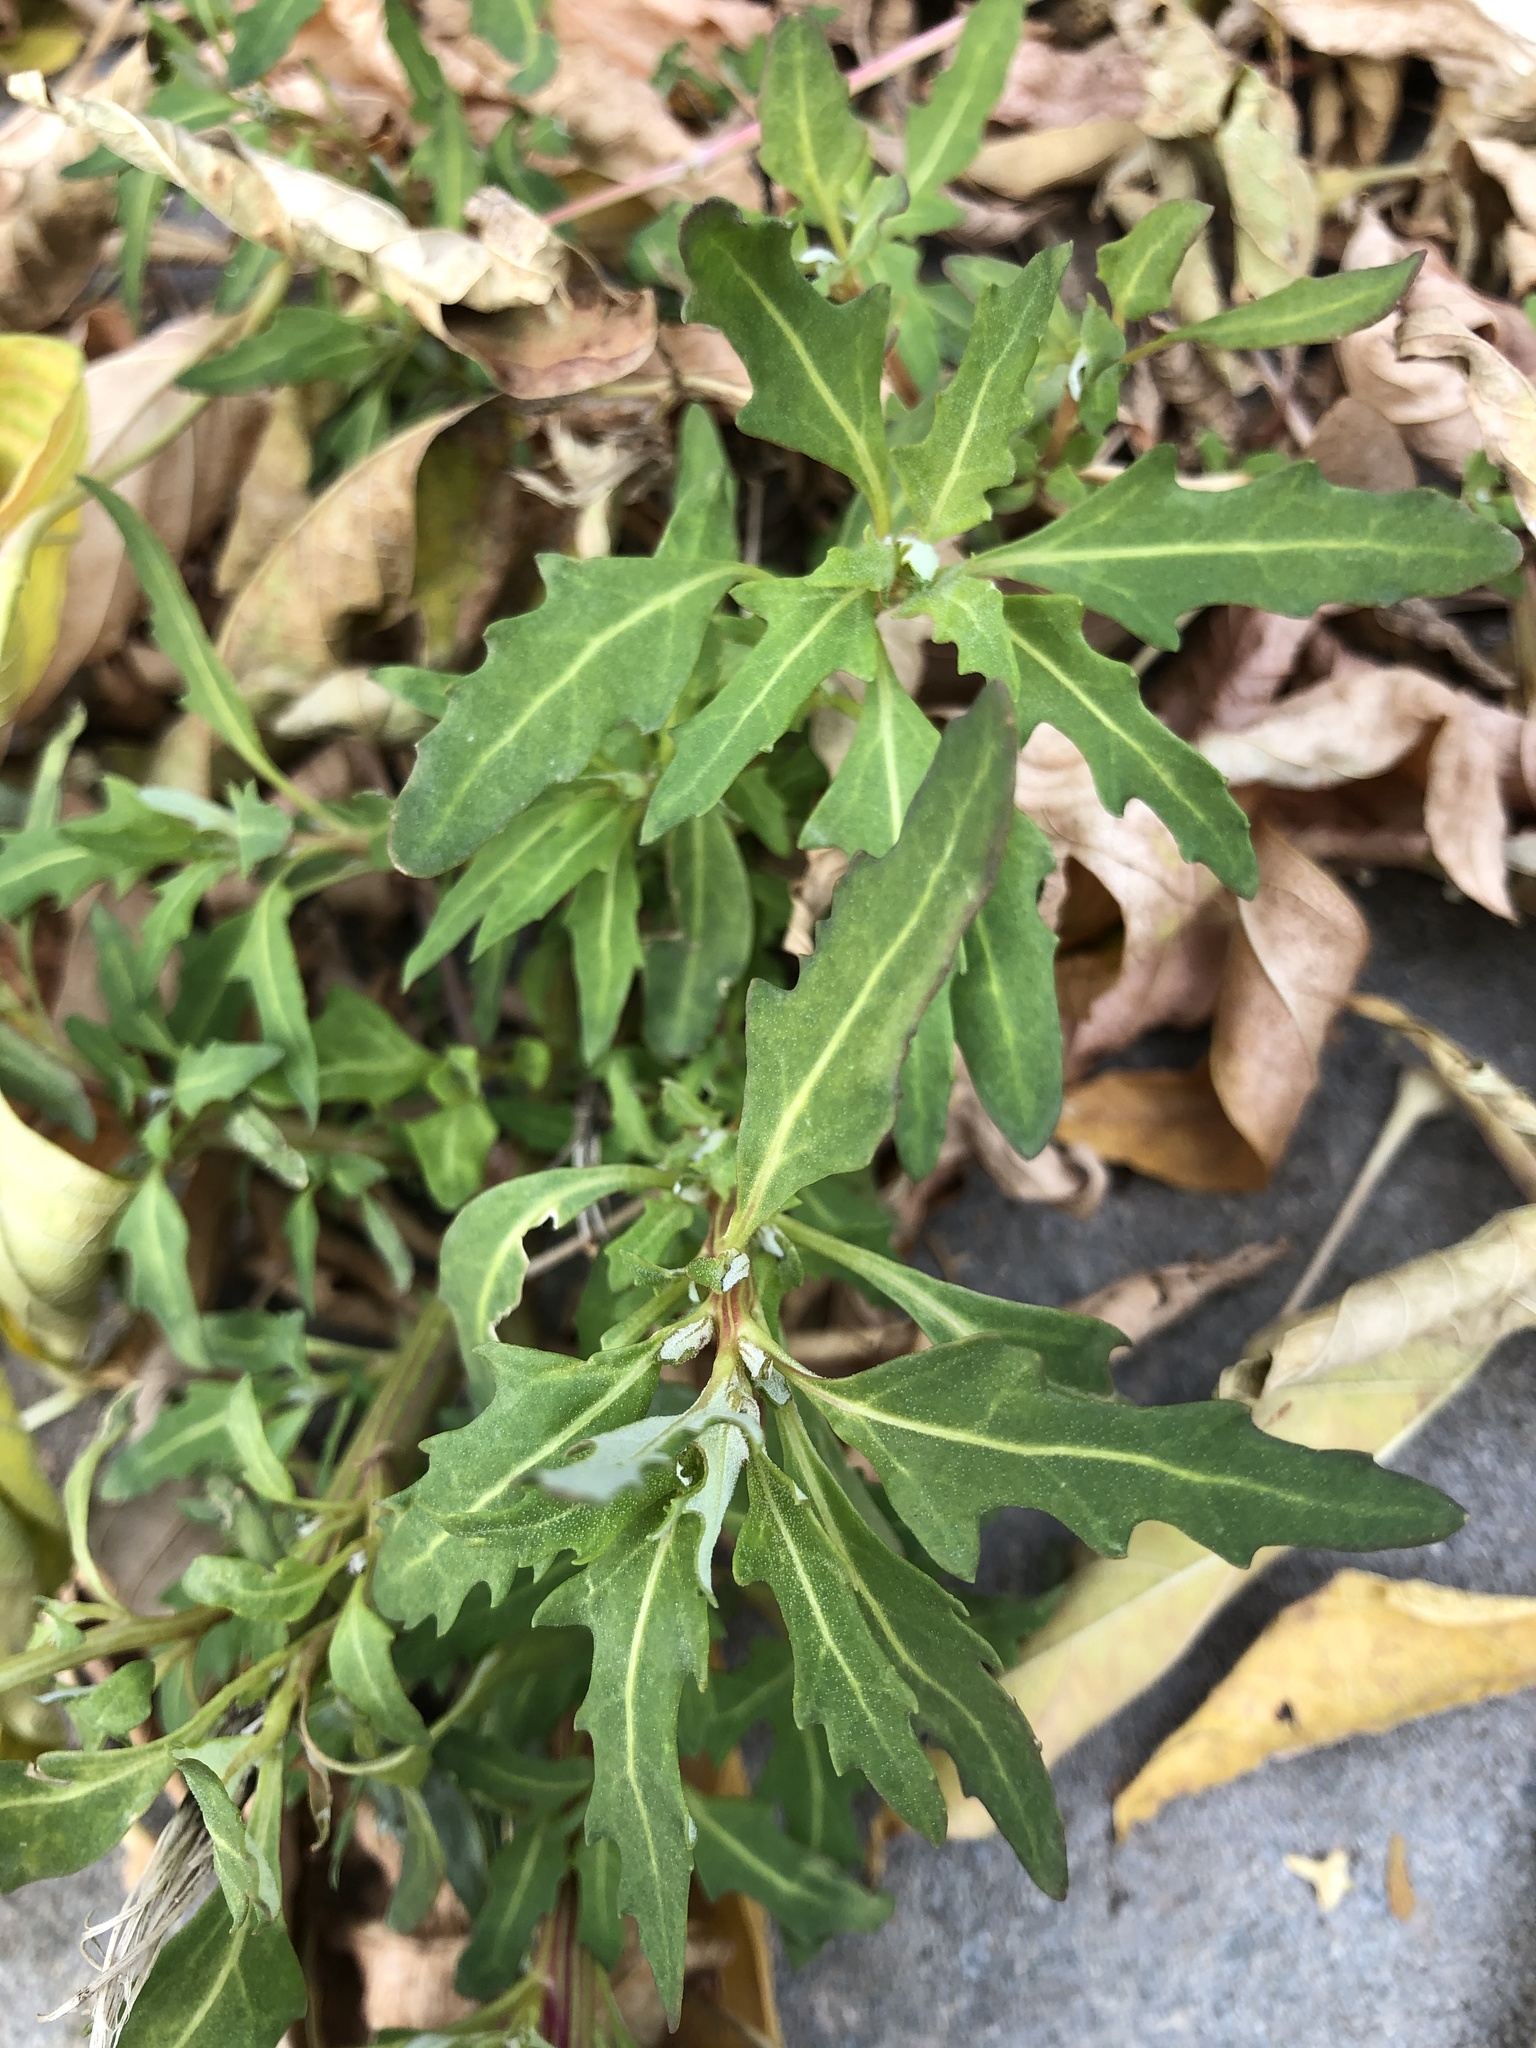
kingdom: Plantae
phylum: Tracheophyta
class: Magnoliopsida
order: Caryophyllales
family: Amaranthaceae
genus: Oxybasis
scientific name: Oxybasis glauca
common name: Glaucous goosefoot
